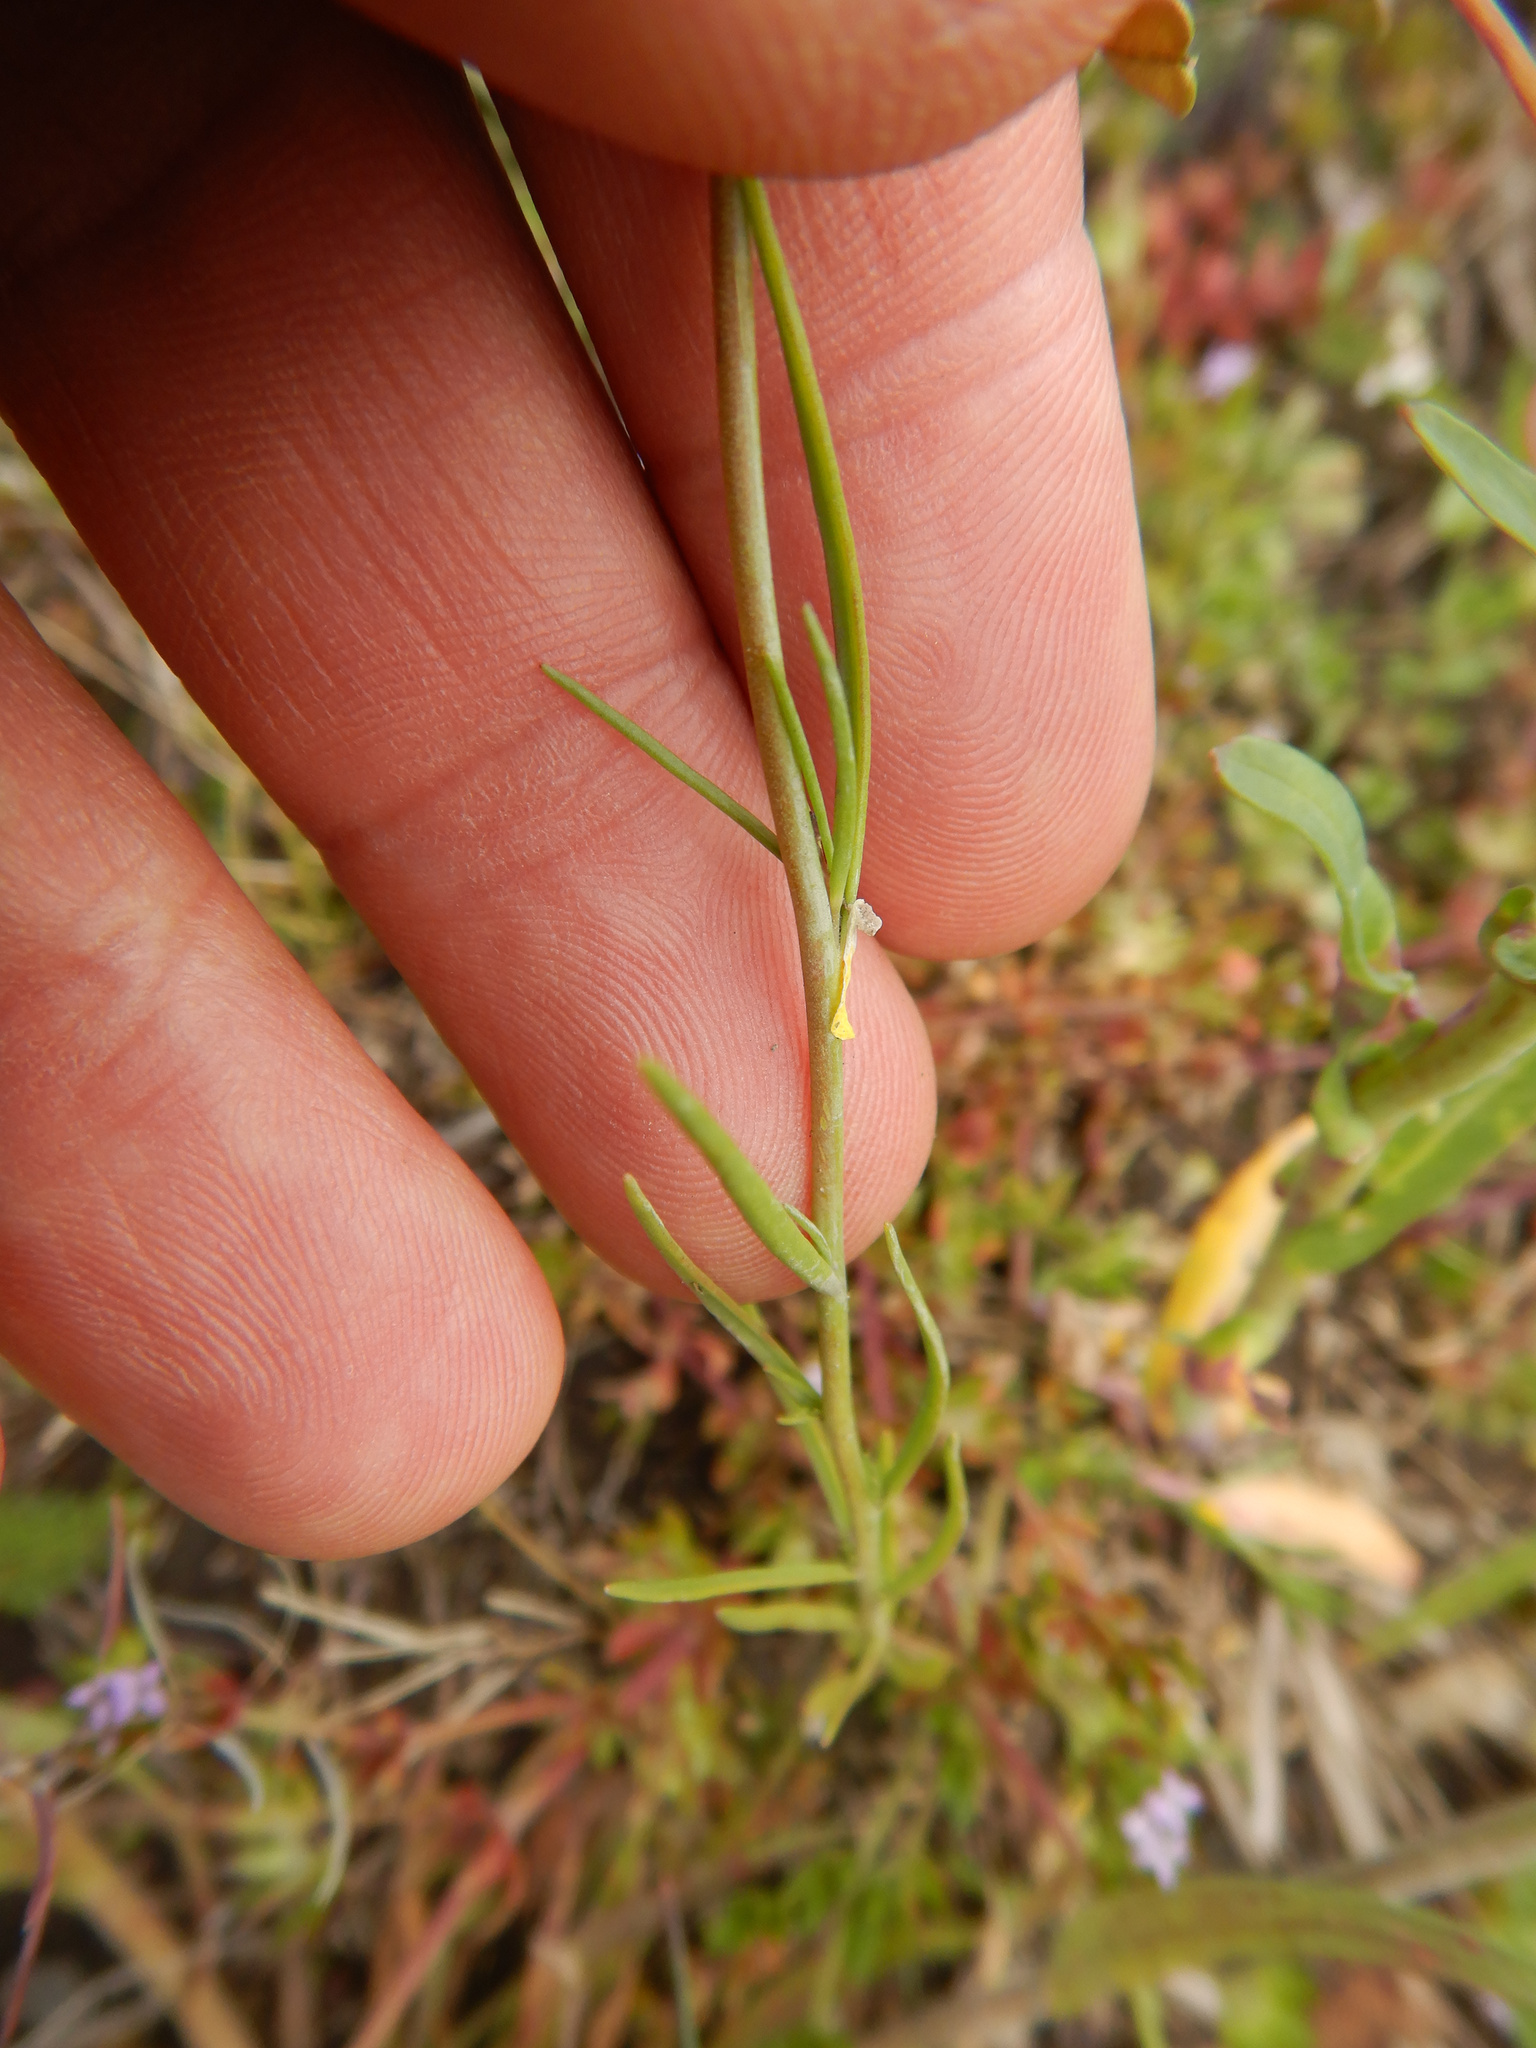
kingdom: Plantae
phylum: Tracheophyta
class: Magnoliopsida
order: Lamiales
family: Plantaginaceae
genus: Linaria
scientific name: Linaria maroccana
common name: Moroccan toadflax
